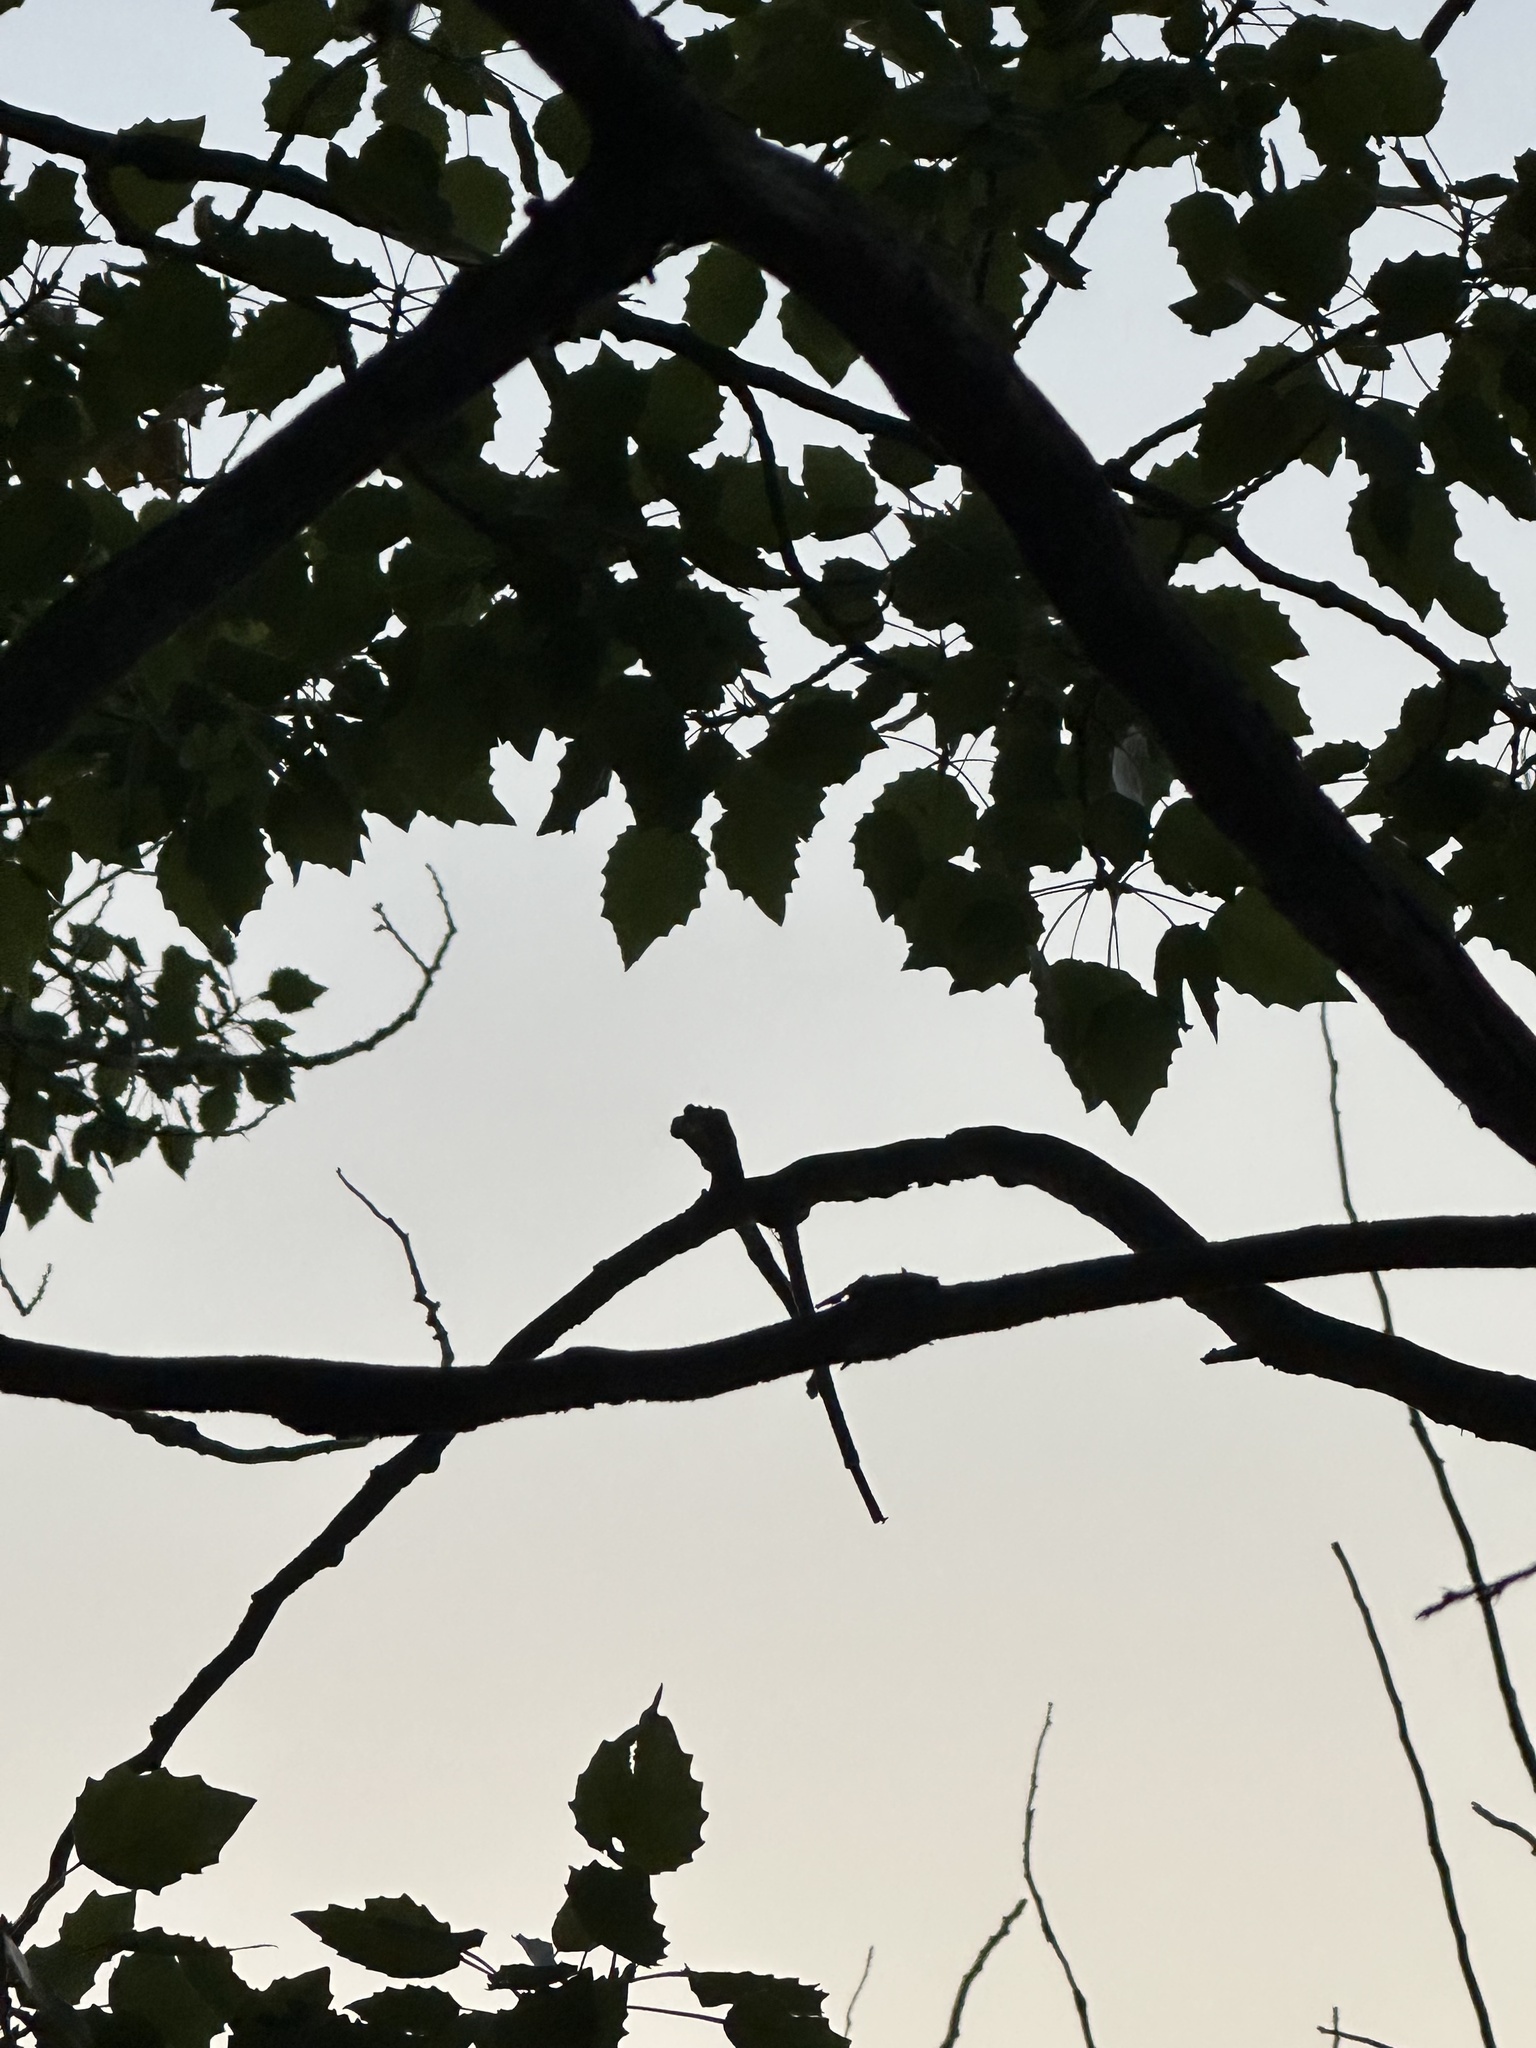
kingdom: Plantae
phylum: Tracheophyta
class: Magnoliopsida
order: Malpighiales
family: Salicaceae
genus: Populus
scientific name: Populus grandidentata
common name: Bigtooth aspen
